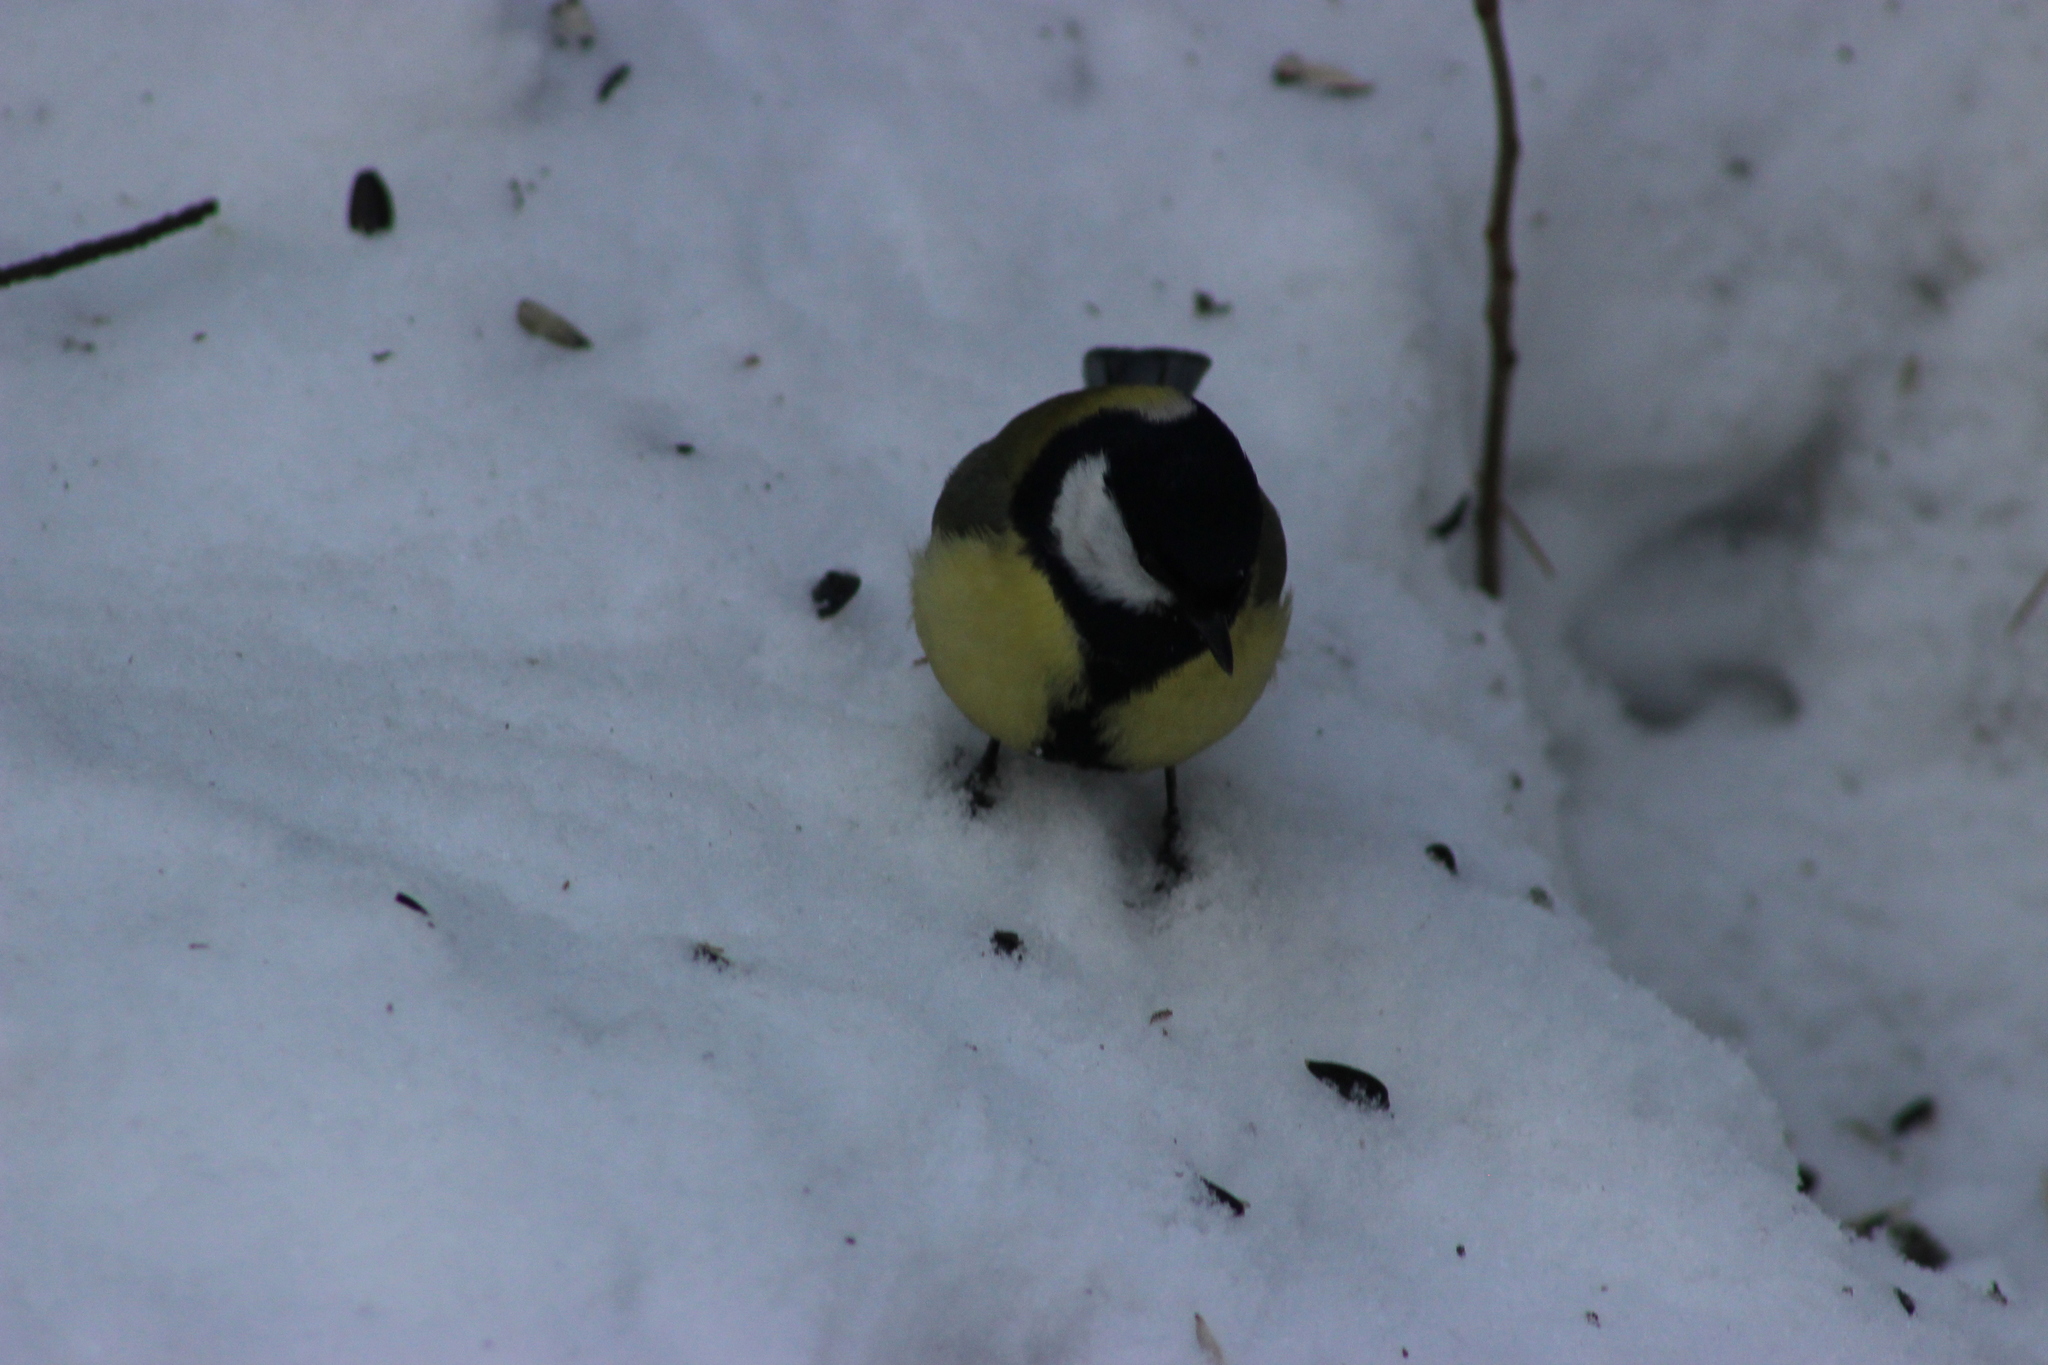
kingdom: Animalia
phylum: Chordata
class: Aves
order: Passeriformes
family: Paridae
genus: Parus
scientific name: Parus major
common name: Great tit
